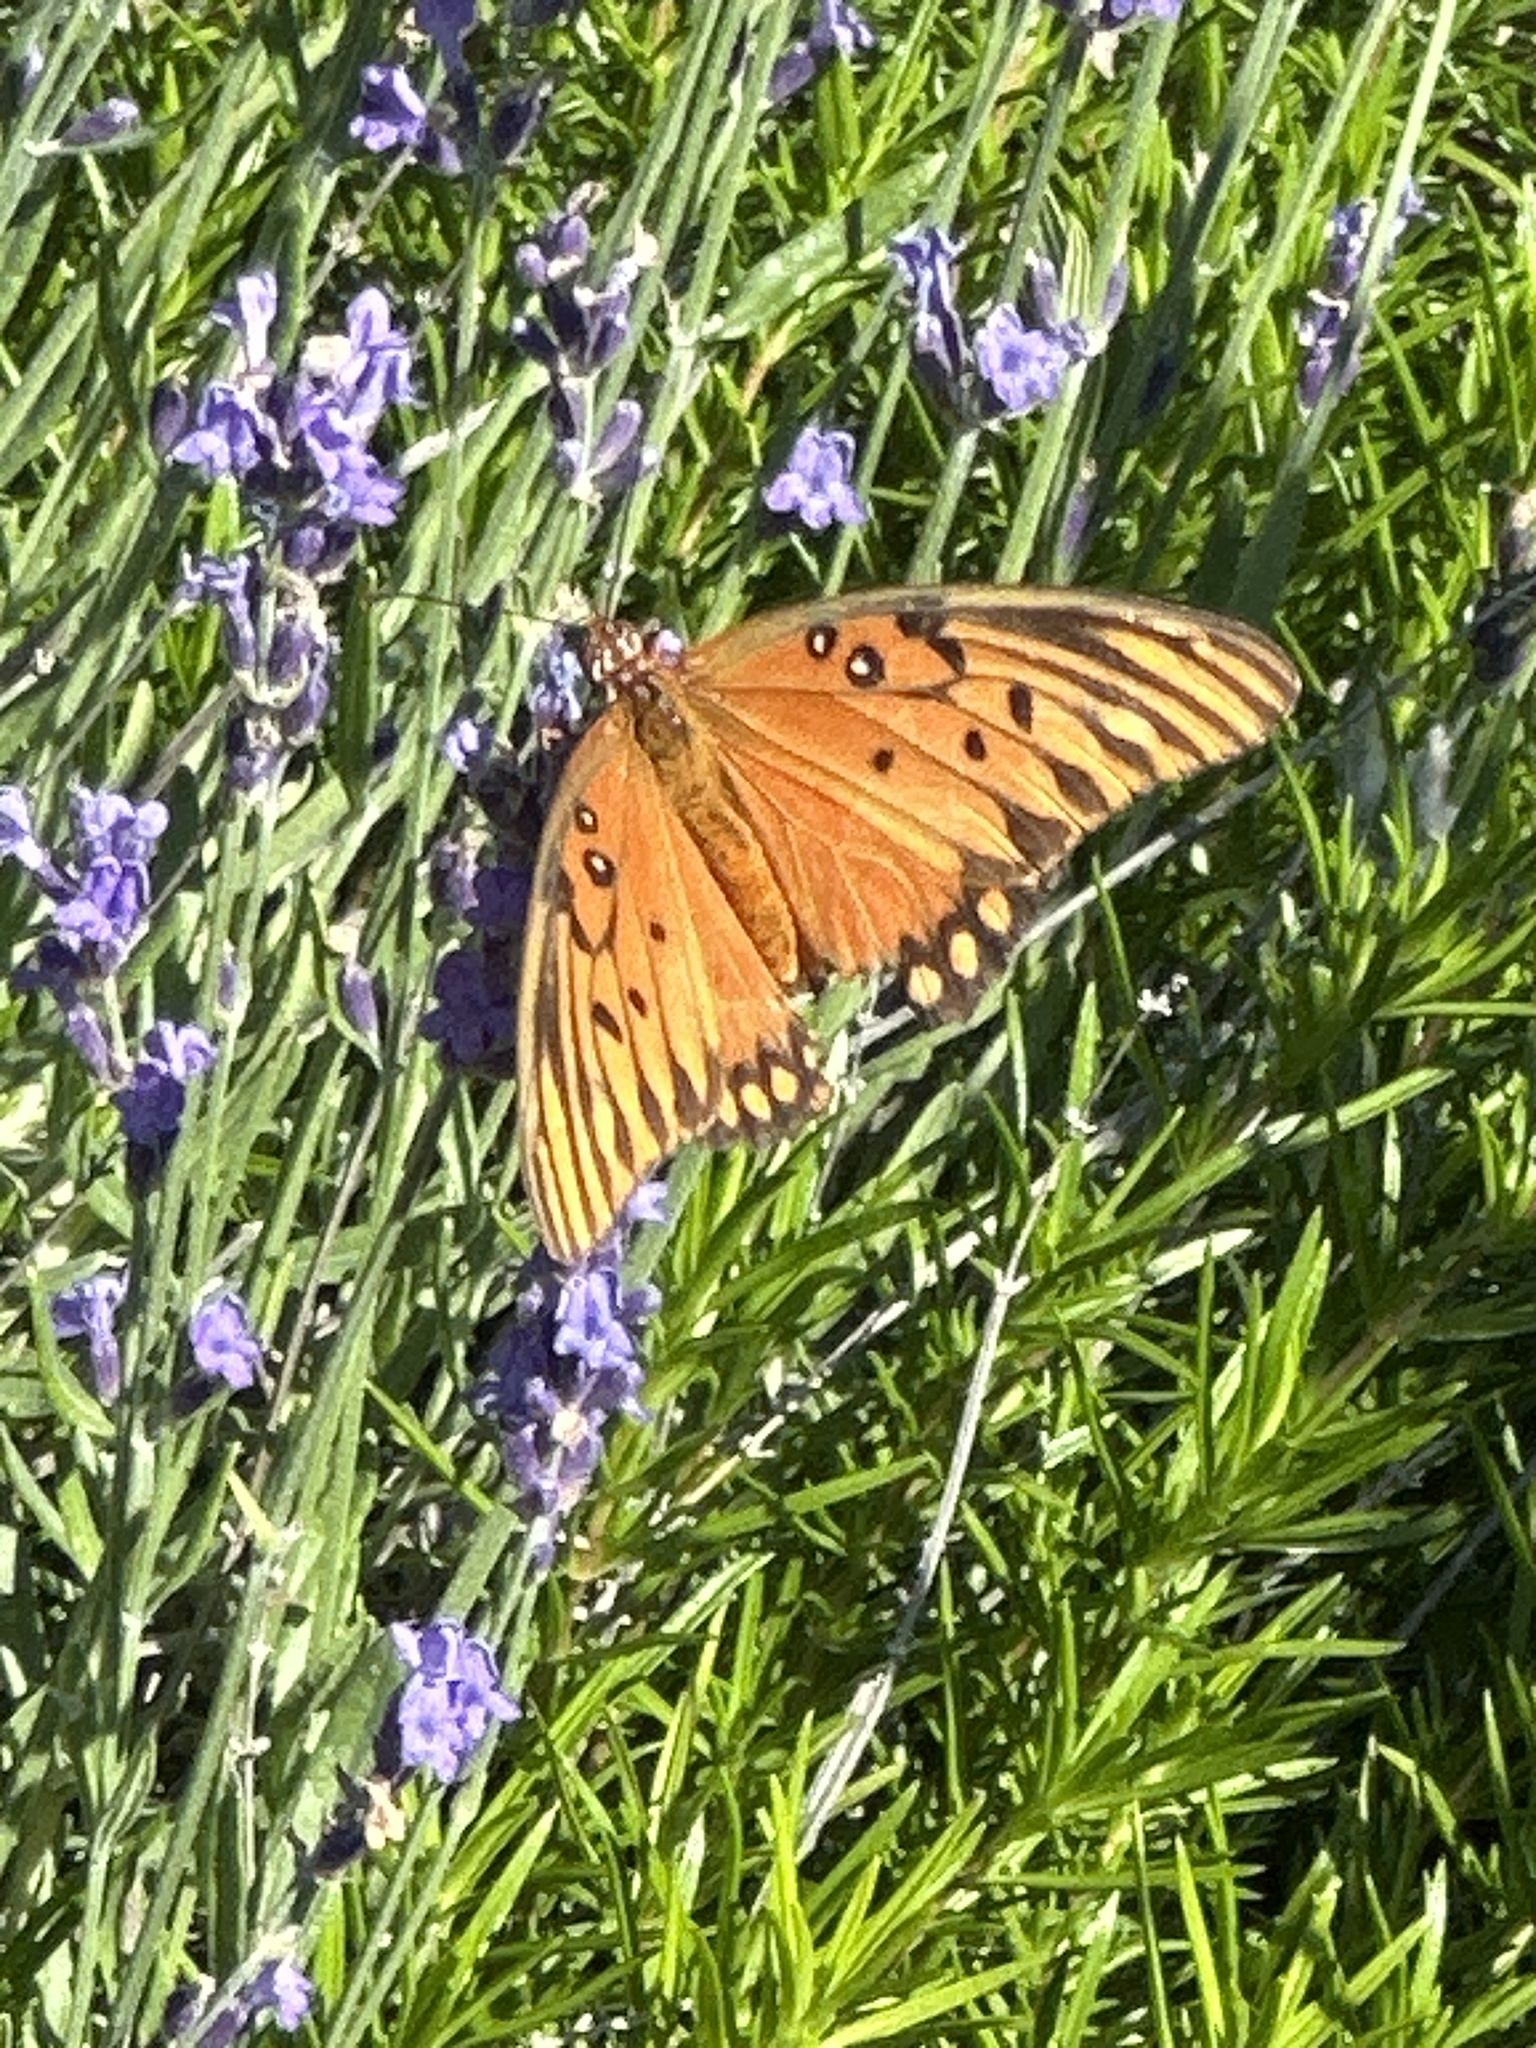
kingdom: Animalia
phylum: Arthropoda
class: Insecta
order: Lepidoptera
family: Nymphalidae
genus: Dione
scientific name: Dione vanillae
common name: Gulf fritillary
